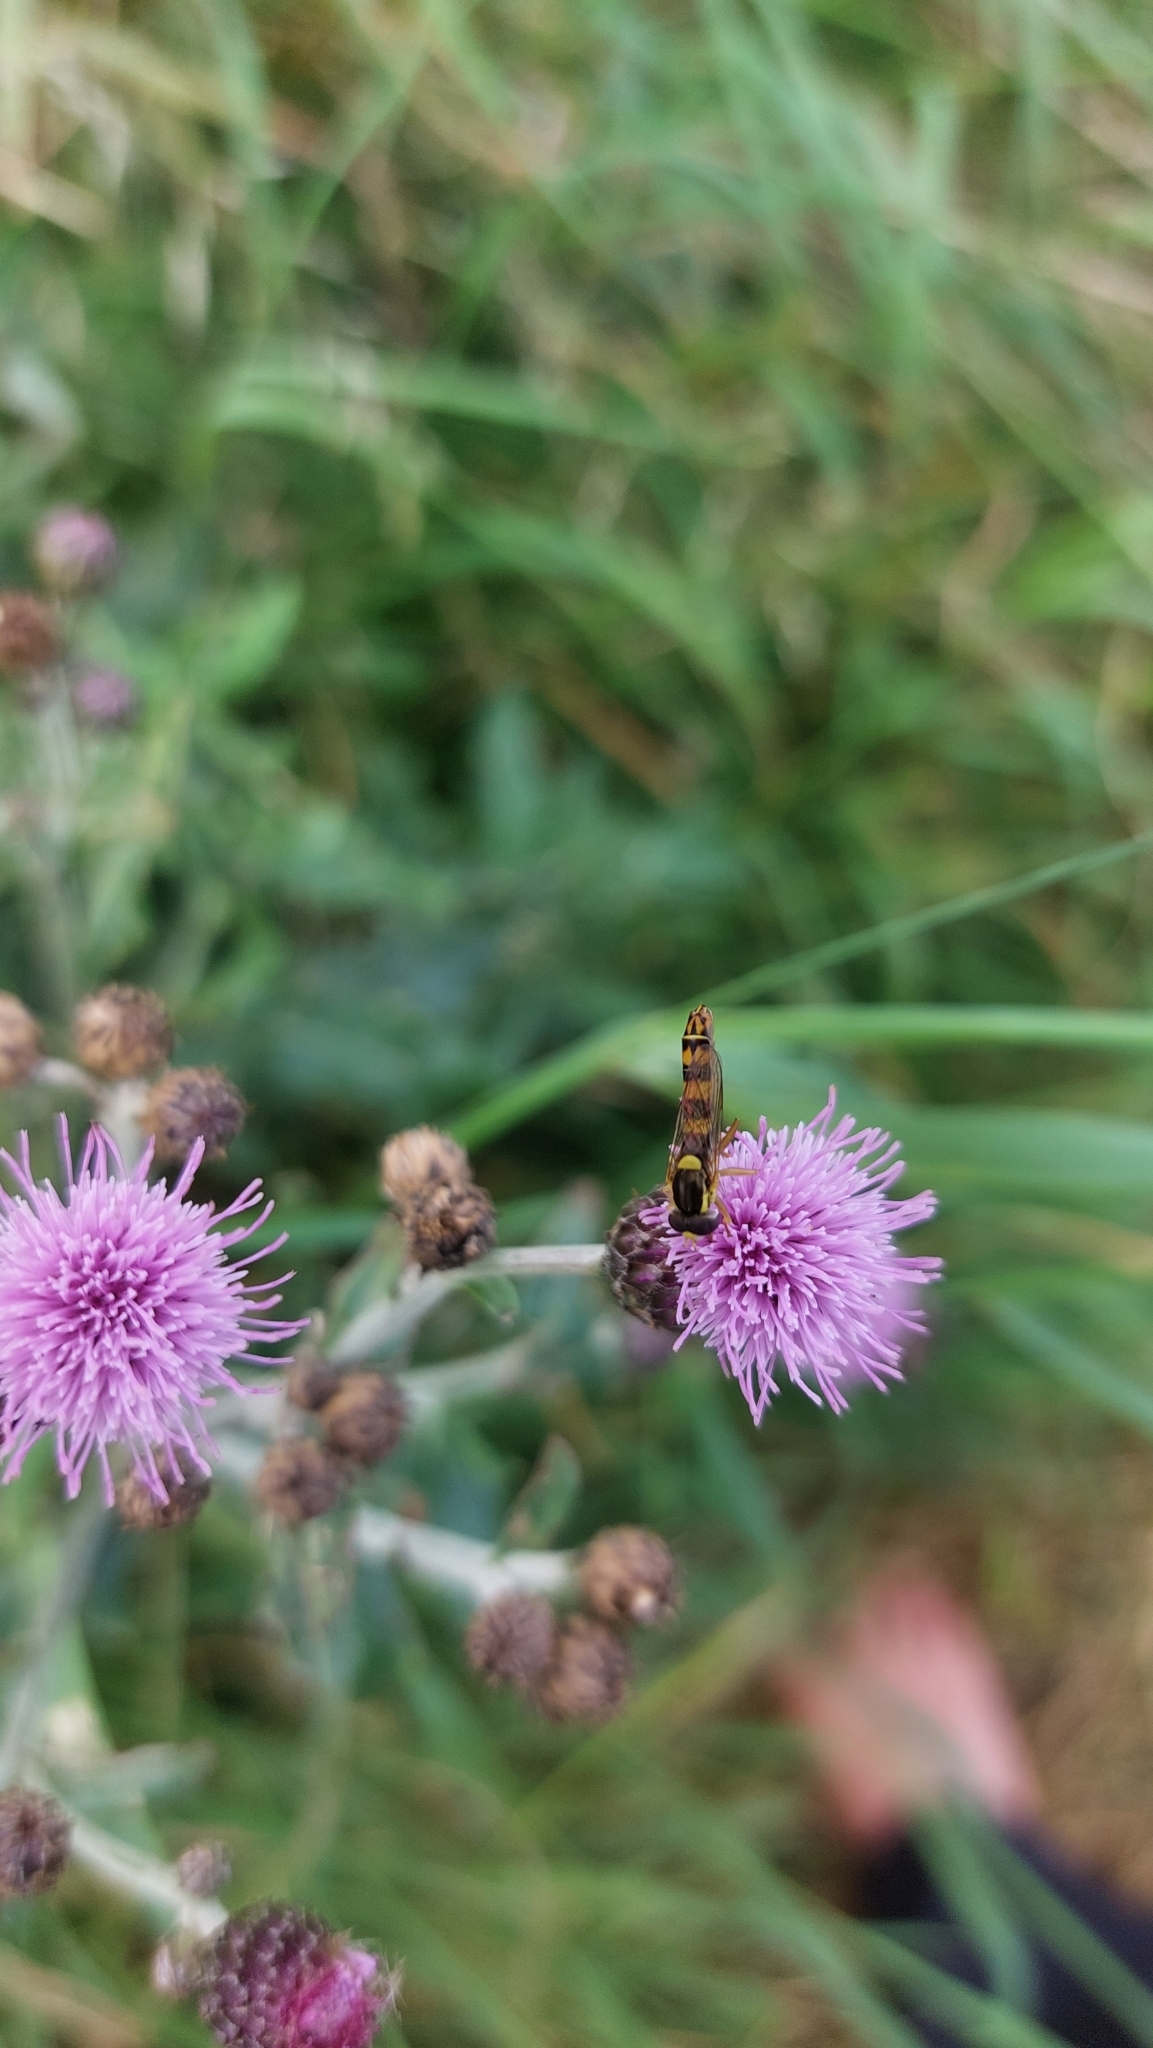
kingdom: Animalia
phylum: Arthropoda
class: Insecta
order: Diptera
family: Syrphidae
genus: Sphaerophoria
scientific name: Sphaerophoria scripta
